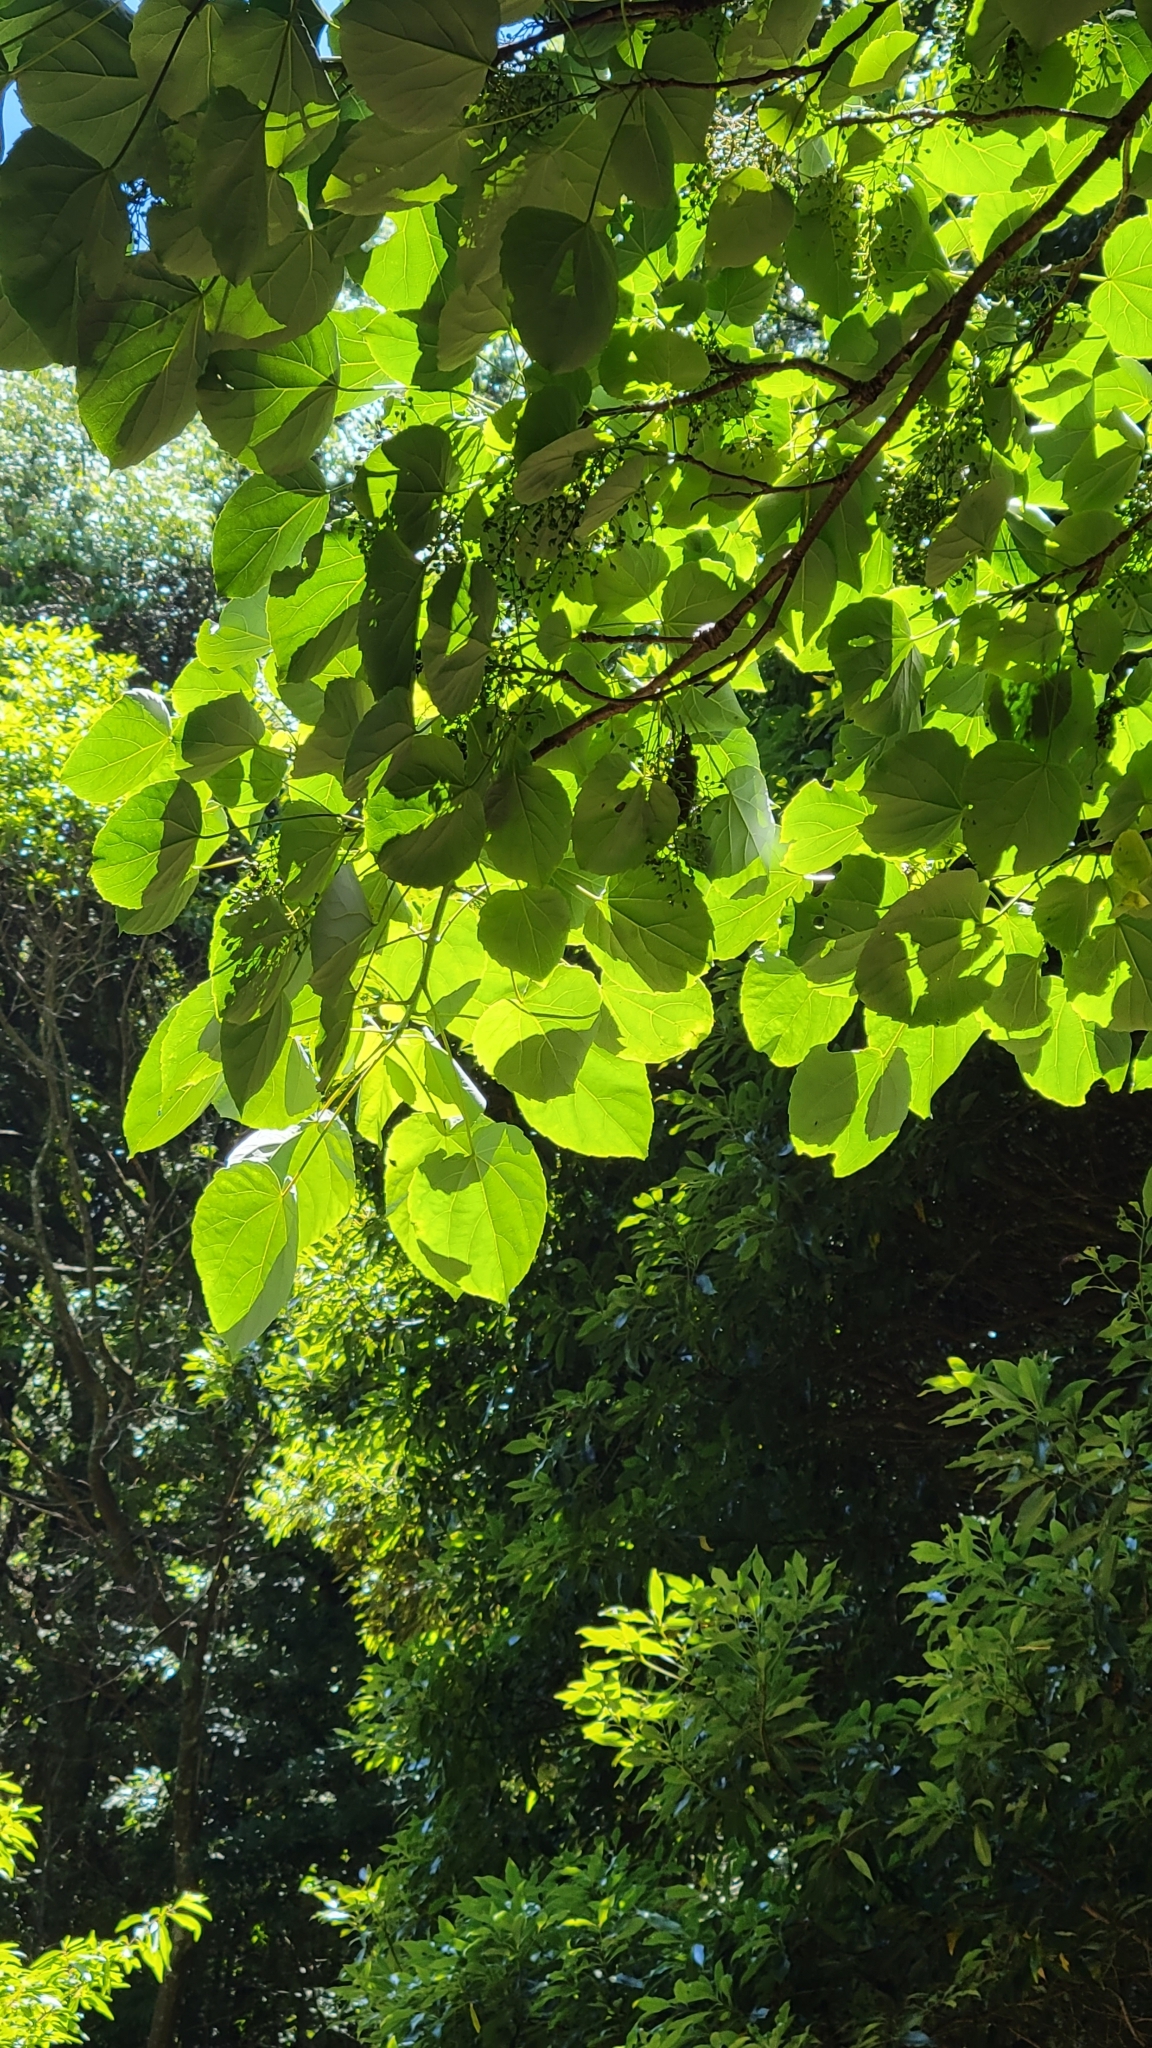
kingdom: Plantae
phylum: Tracheophyta
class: Magnoliopsida
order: Malpighiales
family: Salicaceae
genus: Idesia
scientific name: Idesia polycarpa
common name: Idesia tree
